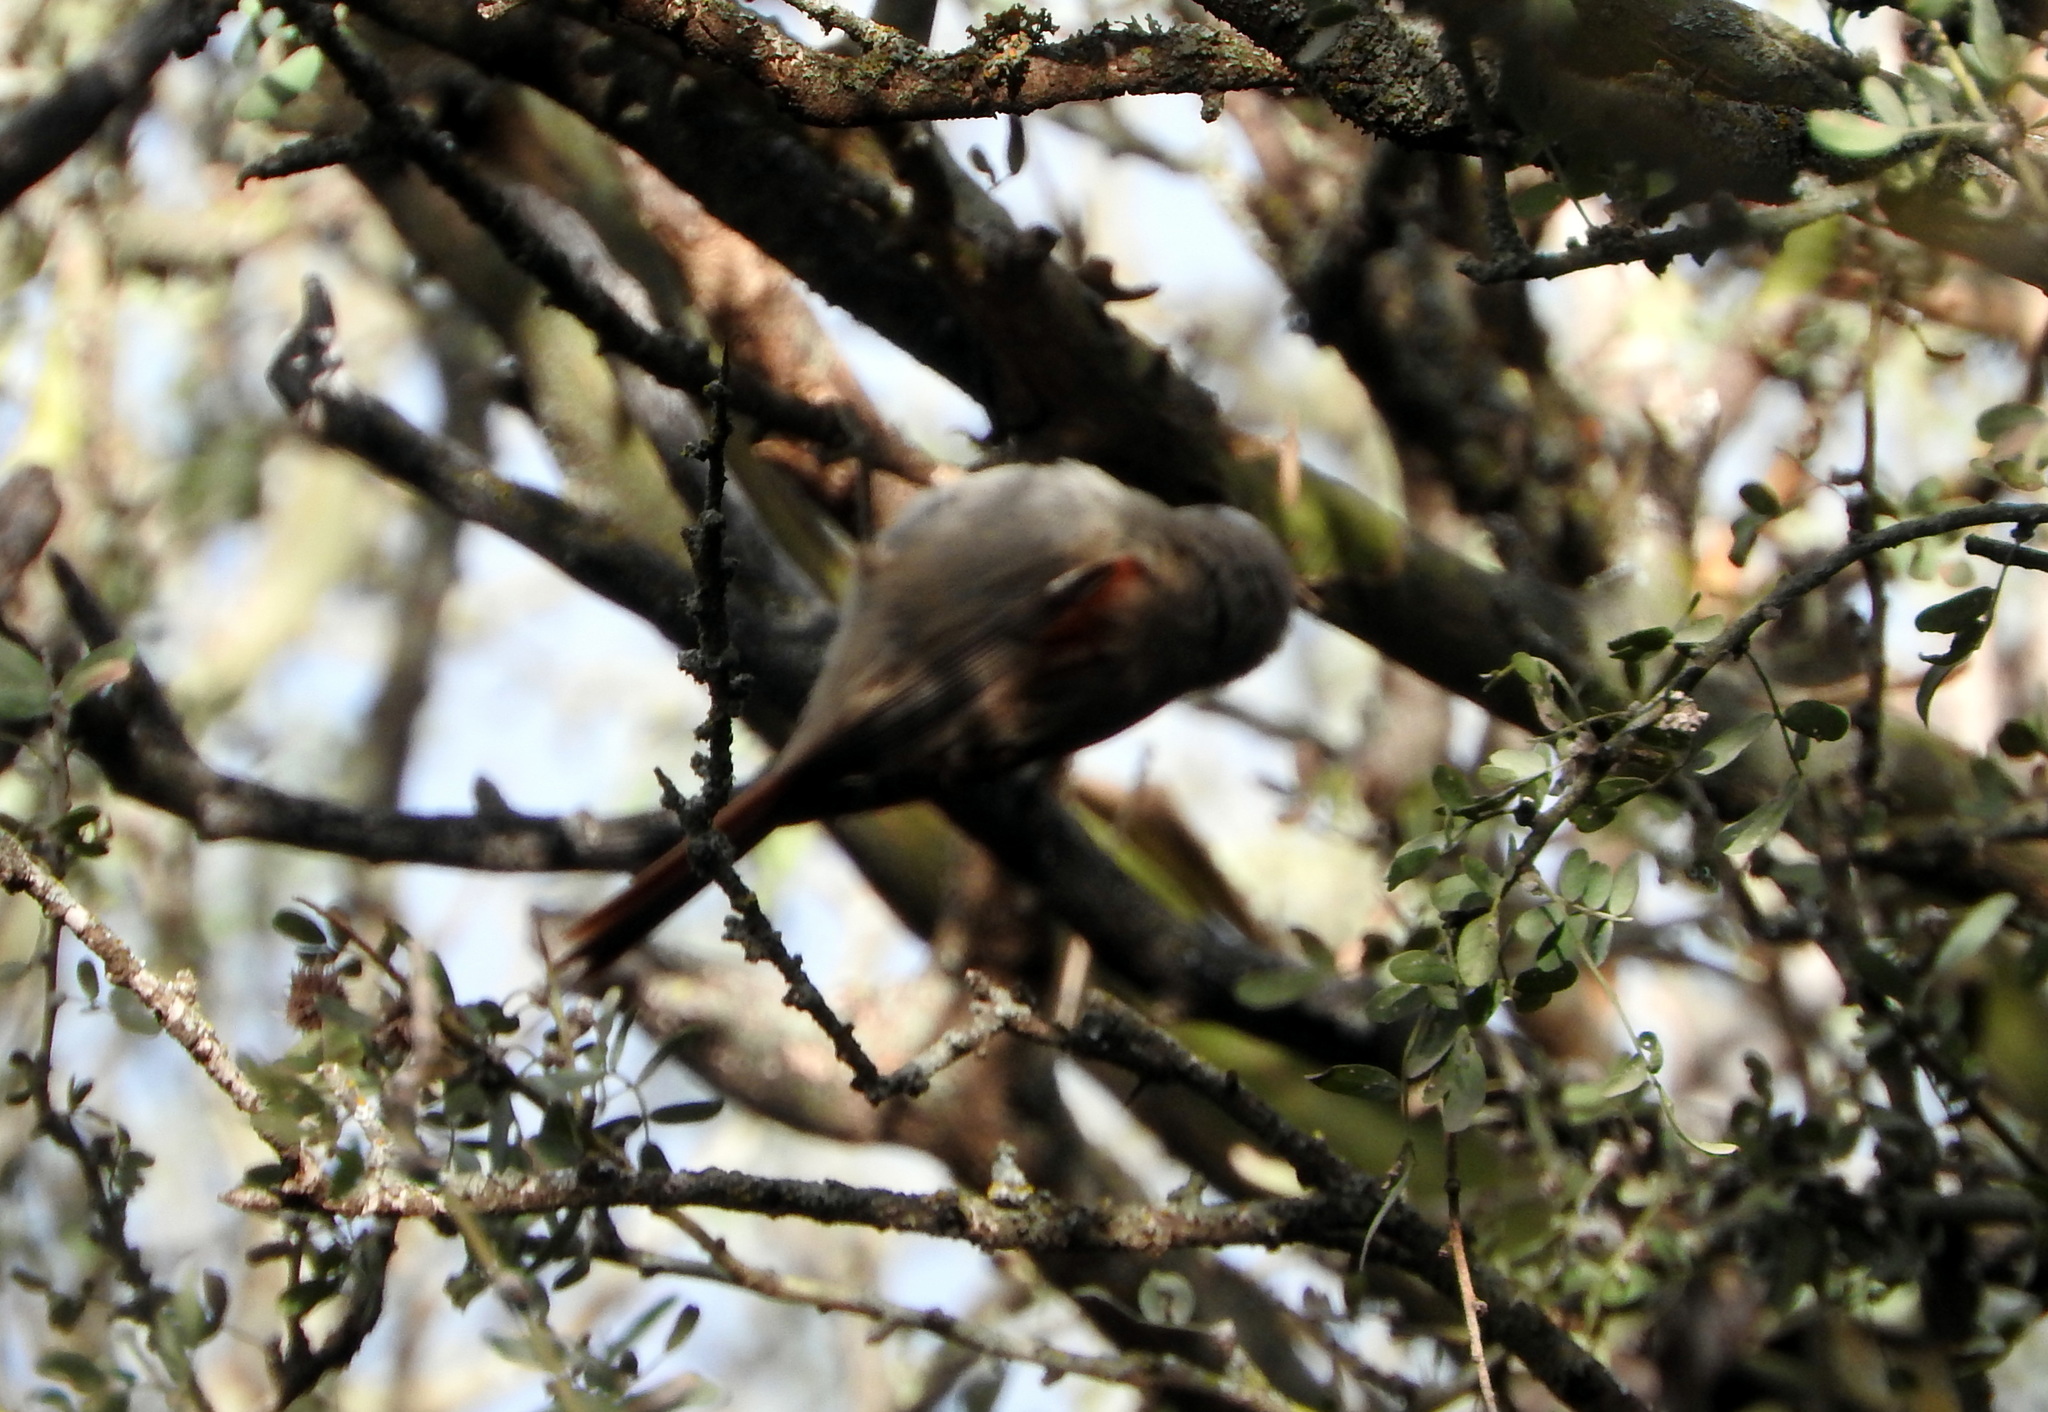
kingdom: Animalia
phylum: Chordata
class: Aves
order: Passeriformes
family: Furnariidae
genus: Cranioleuca
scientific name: Cranioleuca pyrrhophia
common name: Stripe-crowned spinetail
